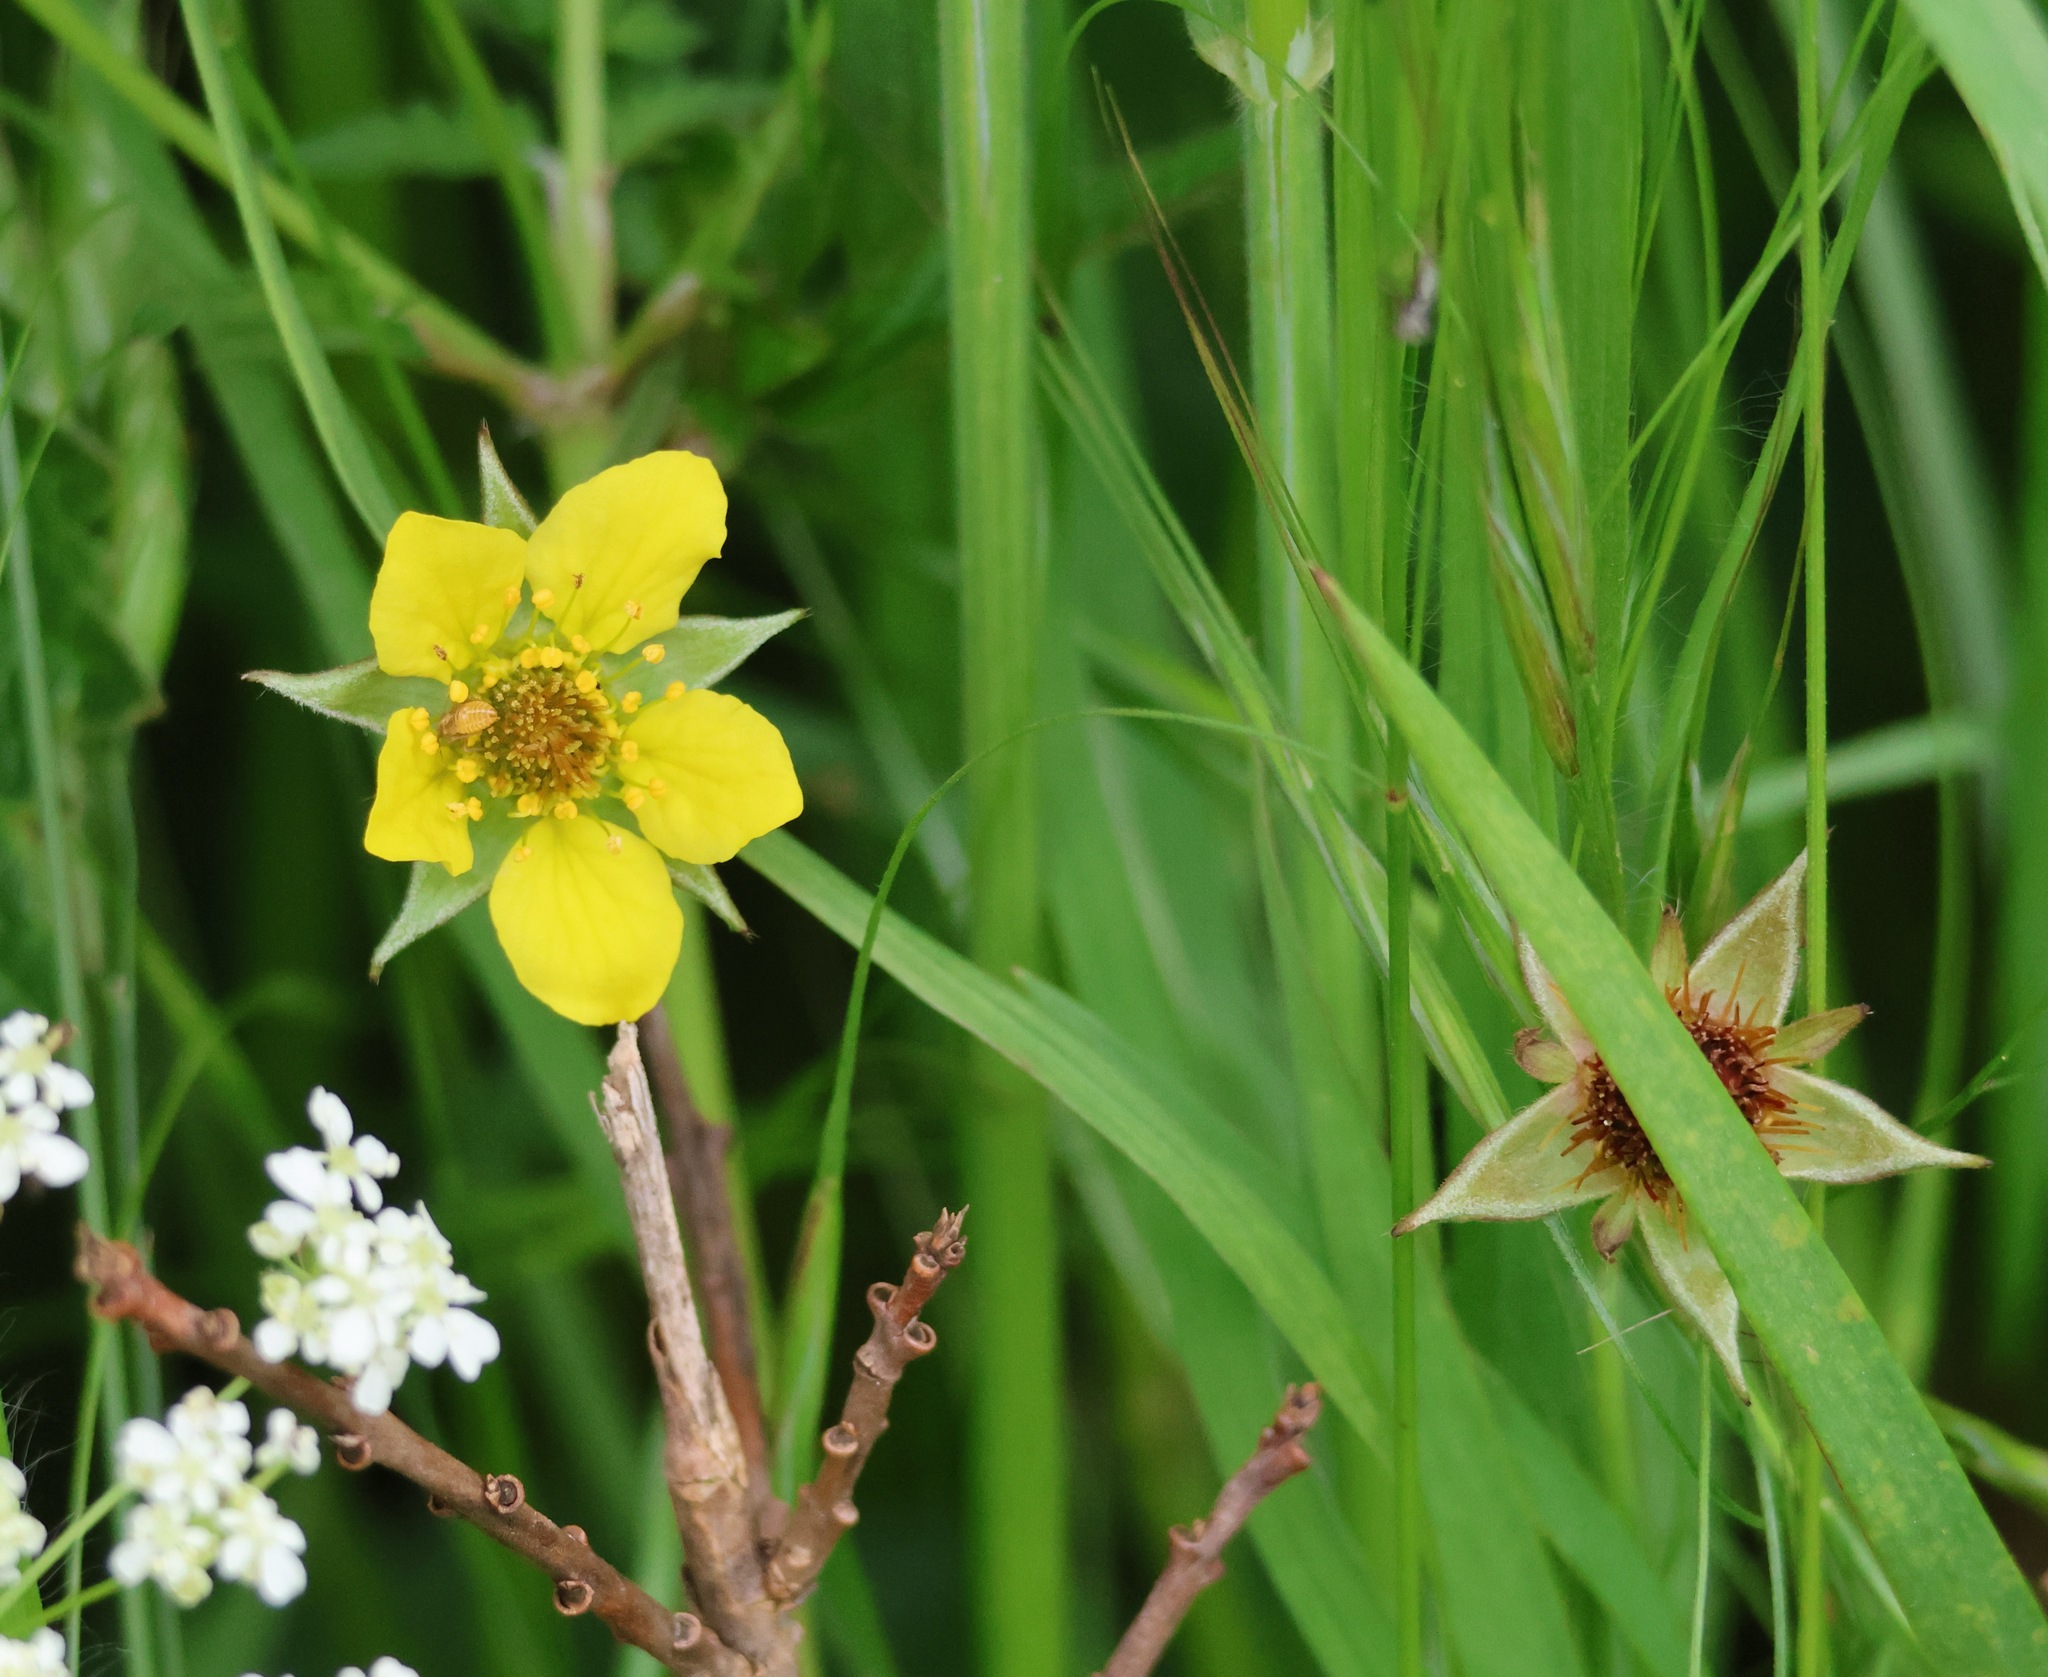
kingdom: Plantae
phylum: Tracheophyta
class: Magnoliopsida
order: Rosales
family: Rosaceae
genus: Geum
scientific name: Geum urbanum
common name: Wood avens
